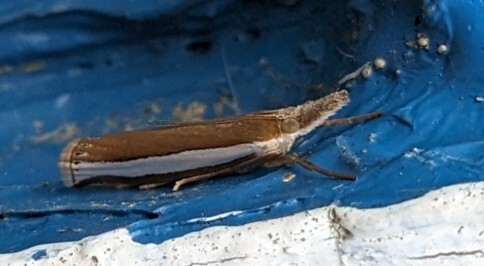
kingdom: Animalia
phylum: Arthropoda
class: Insecta
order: Lepidoptera
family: Crambidae
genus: Crambus
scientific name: Crambus unistriatellus
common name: Wide-stripe grass-veneer moth
